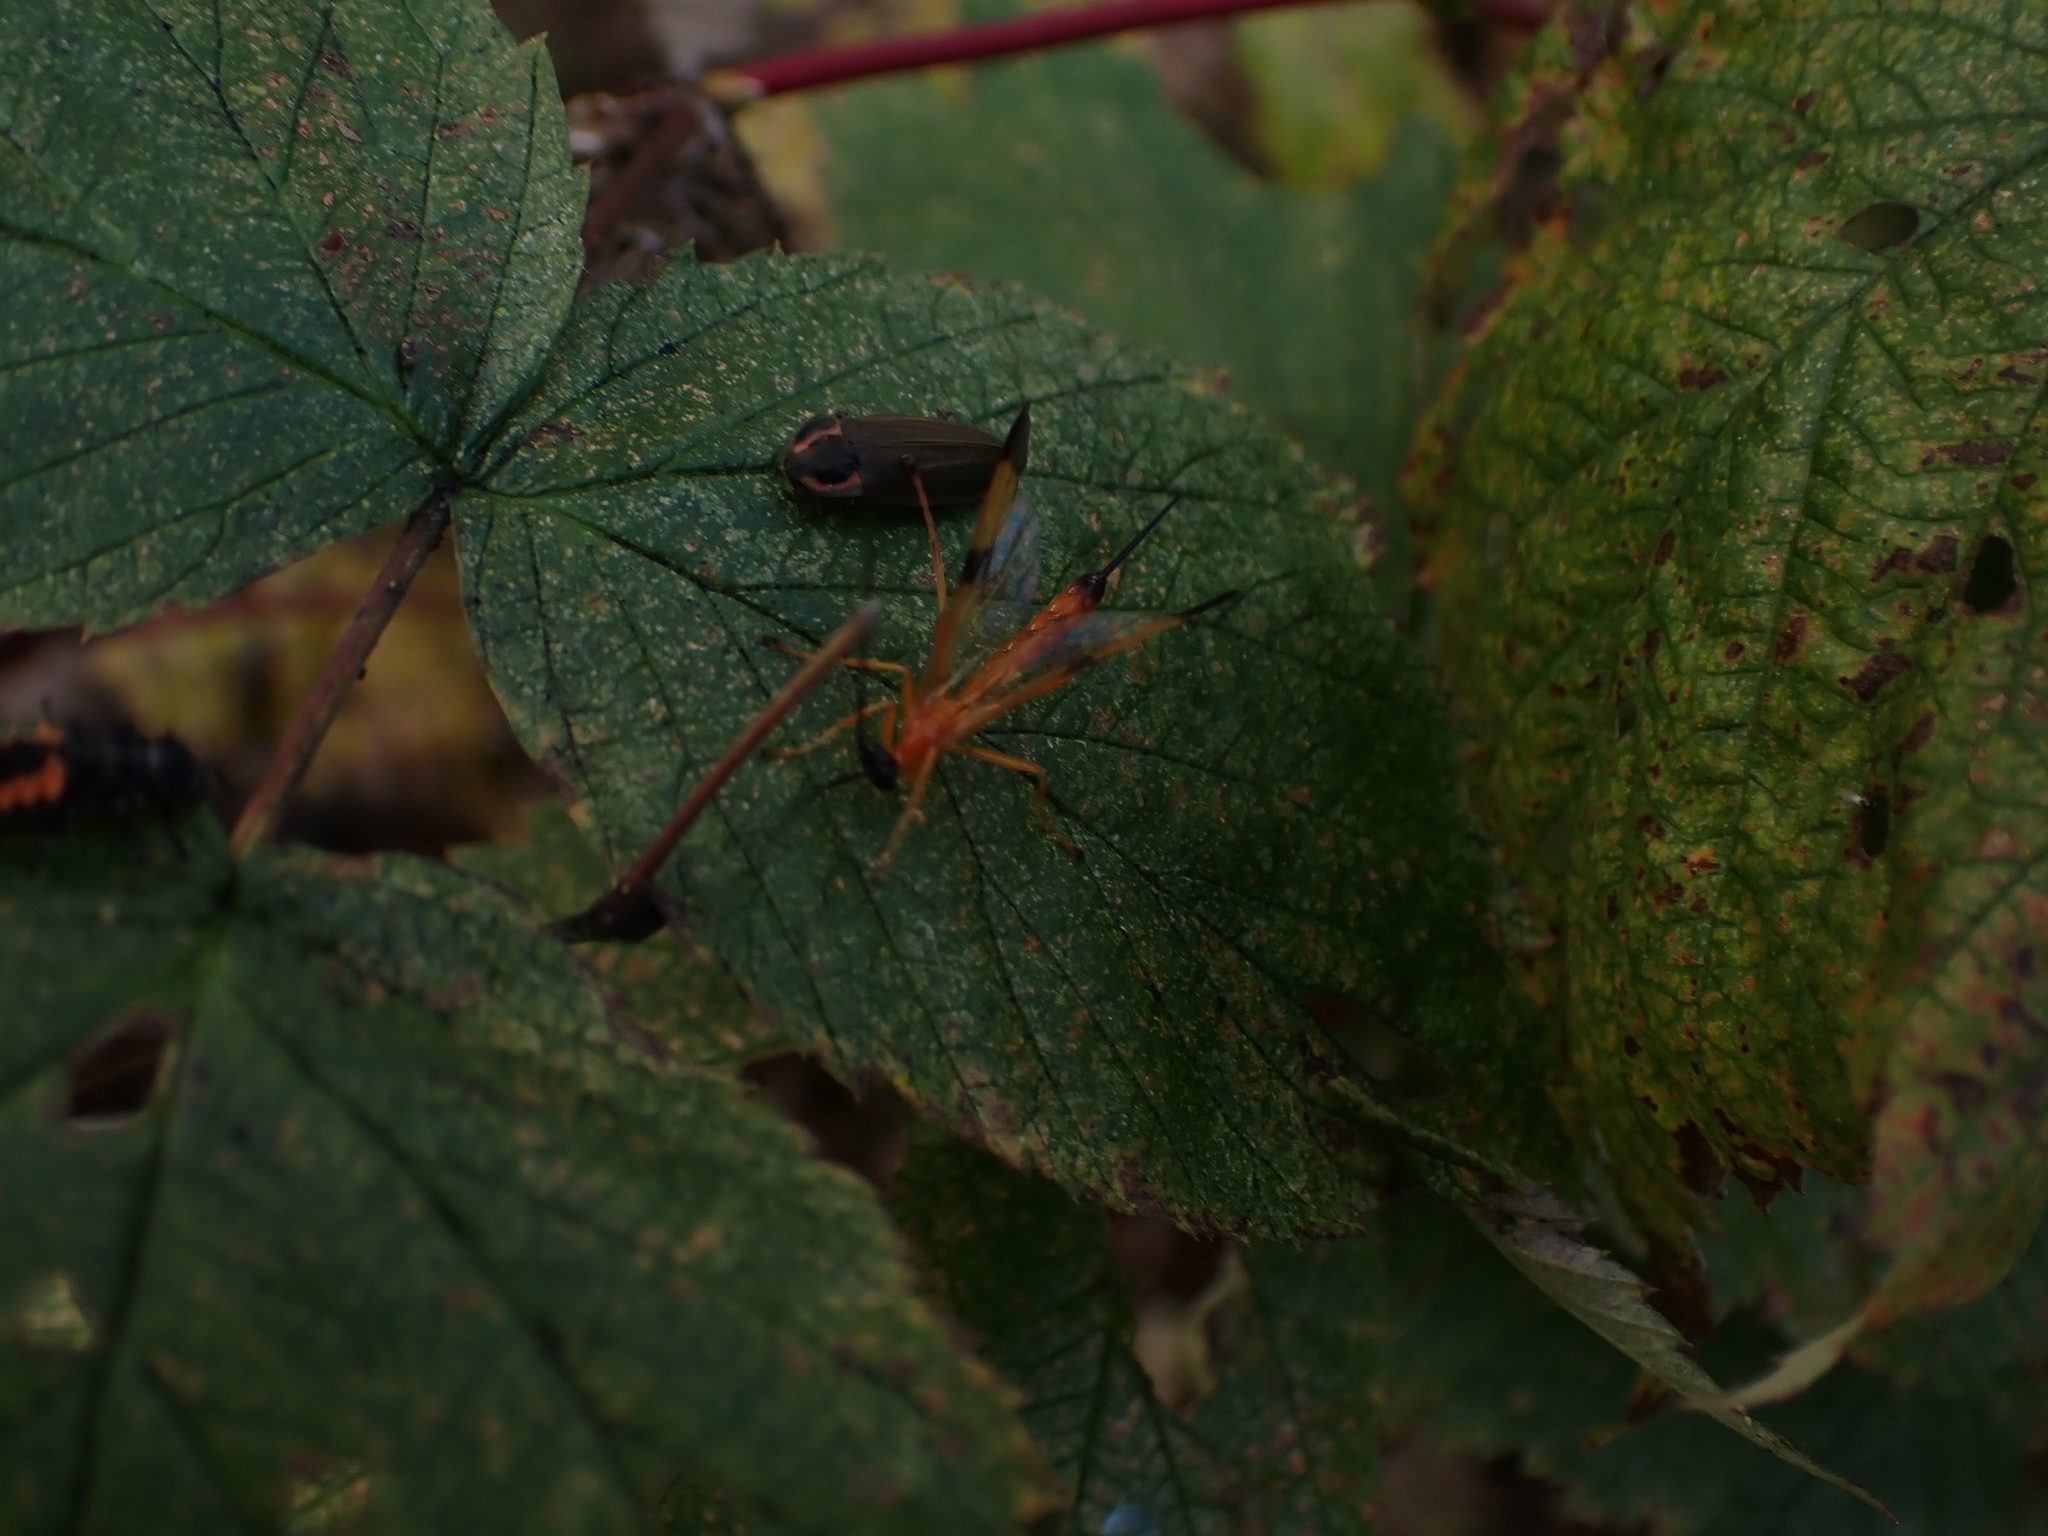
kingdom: Animalia
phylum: Arthropoda
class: Insecta
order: Coleoptera
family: Lampyridae
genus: Photinus
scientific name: Photinus corrusca
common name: Winter firefly
